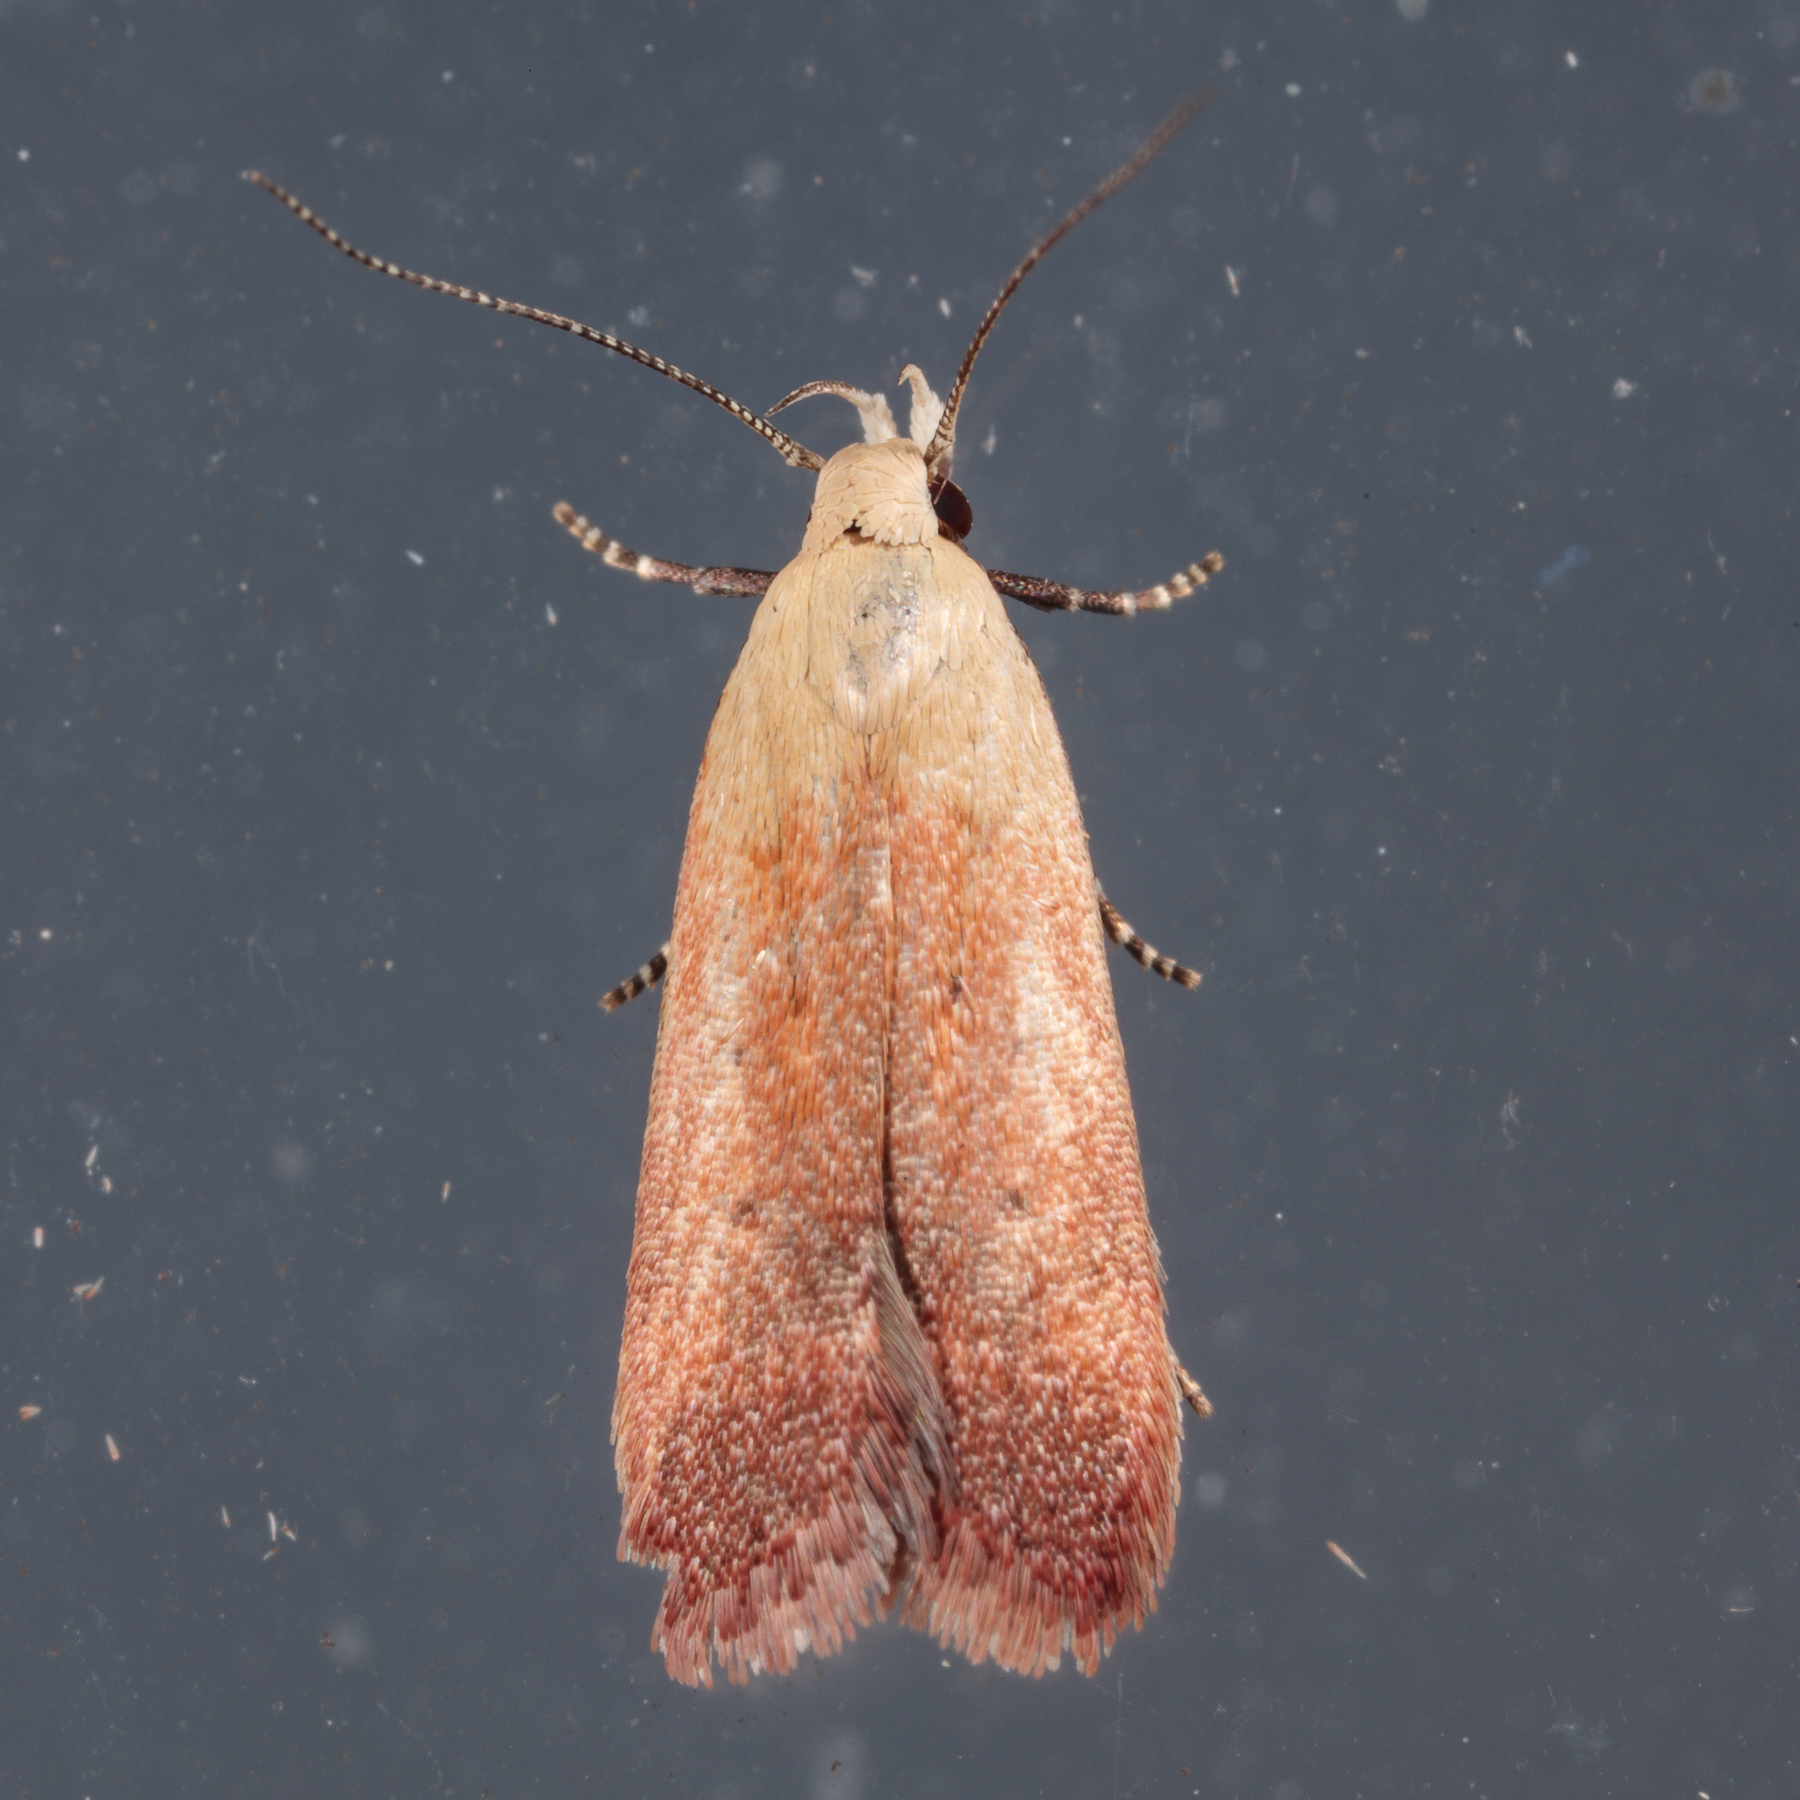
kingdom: Animalia
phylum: Arthropoda
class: Insecta
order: Lepidoptera
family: Gelechiidae
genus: Anacampsis
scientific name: Anacampsis fullonella
